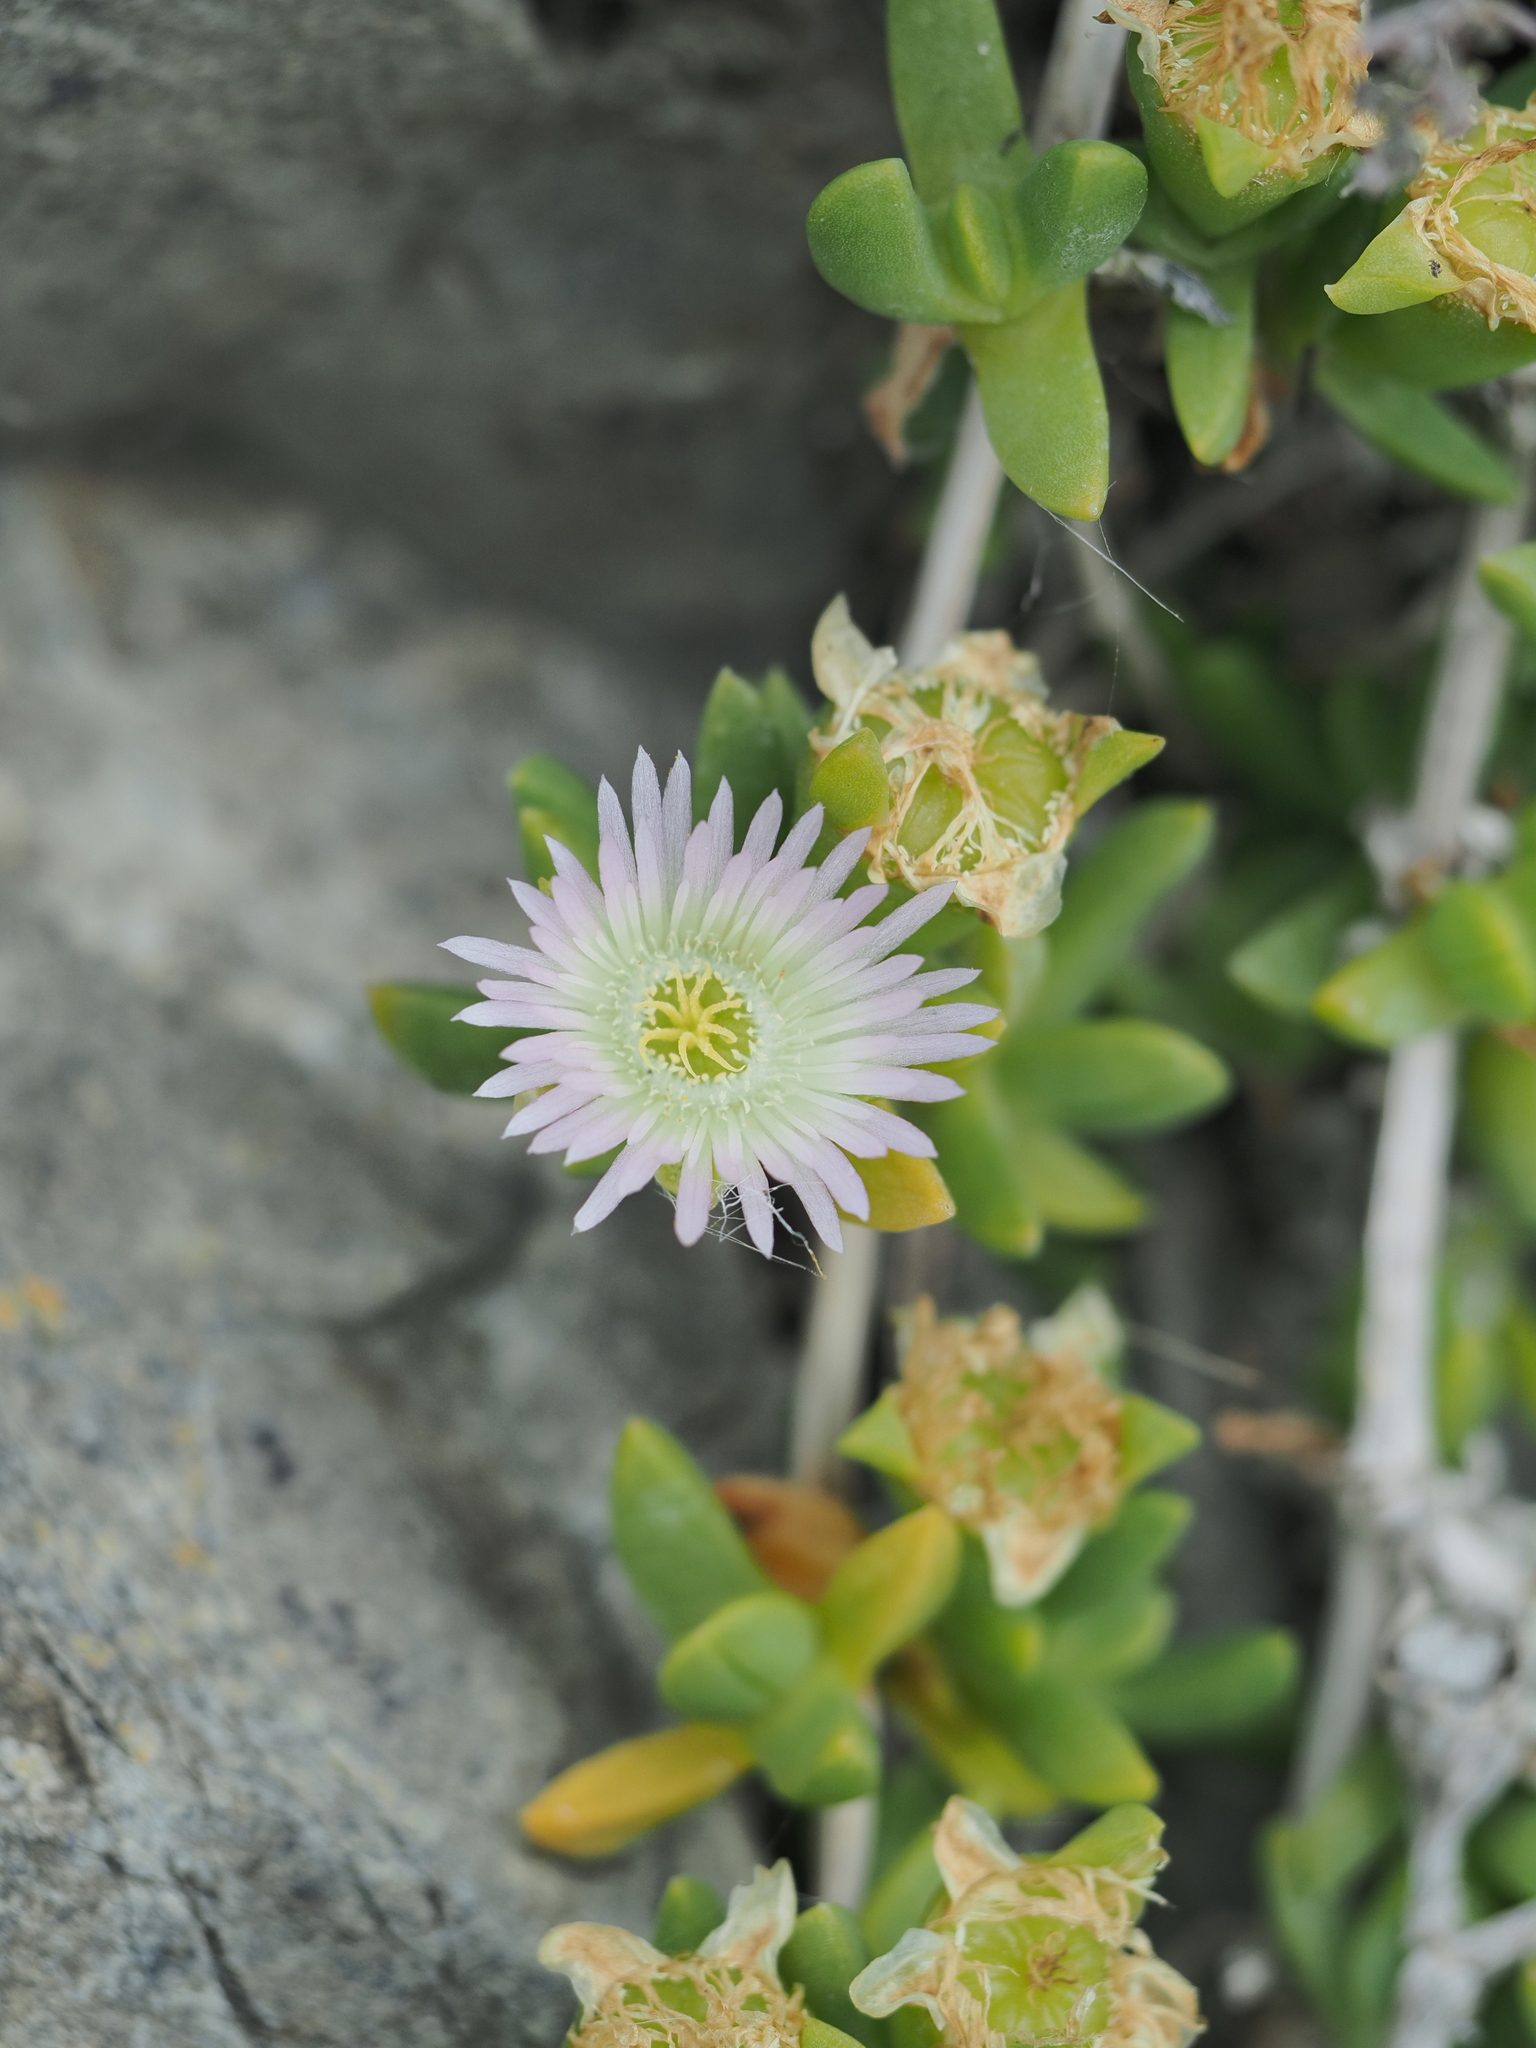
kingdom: Plantae
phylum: Tracheophyta
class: Magnoliopsida
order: Caryophyllales
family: Aizoaceae
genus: Disphyma
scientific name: Disphyma australe
